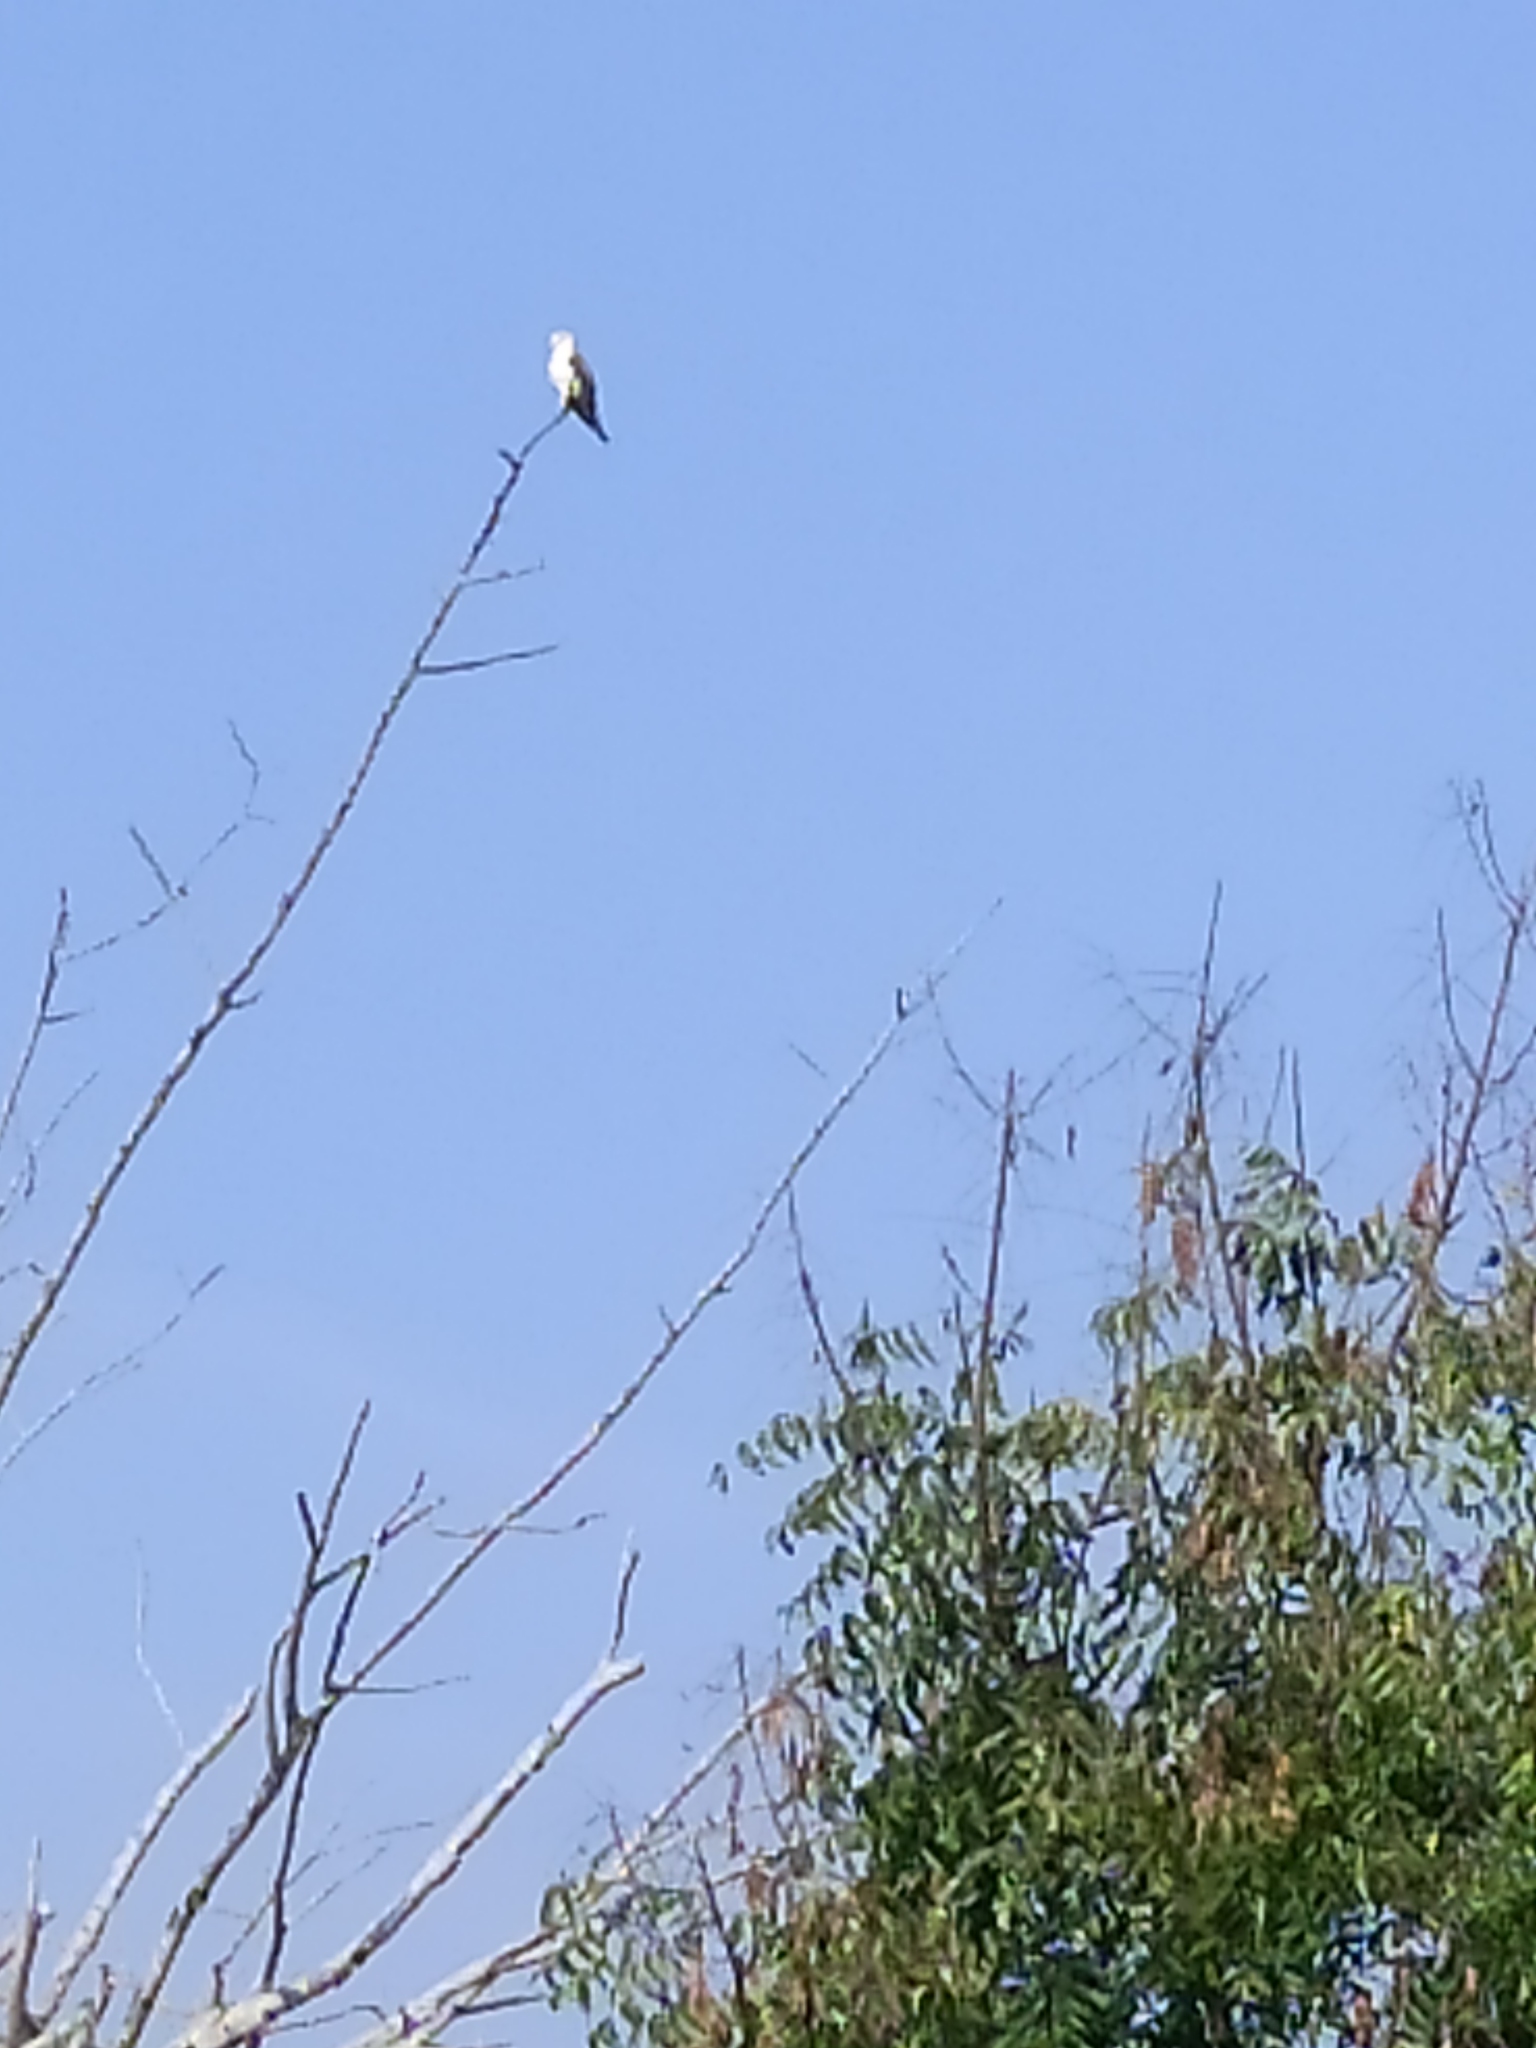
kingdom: Animalia
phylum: Chordata
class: Aves
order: Accipitriformes
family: Accipitridae
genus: Elanus
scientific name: Elanus caeruleus
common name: Black-winged kite
